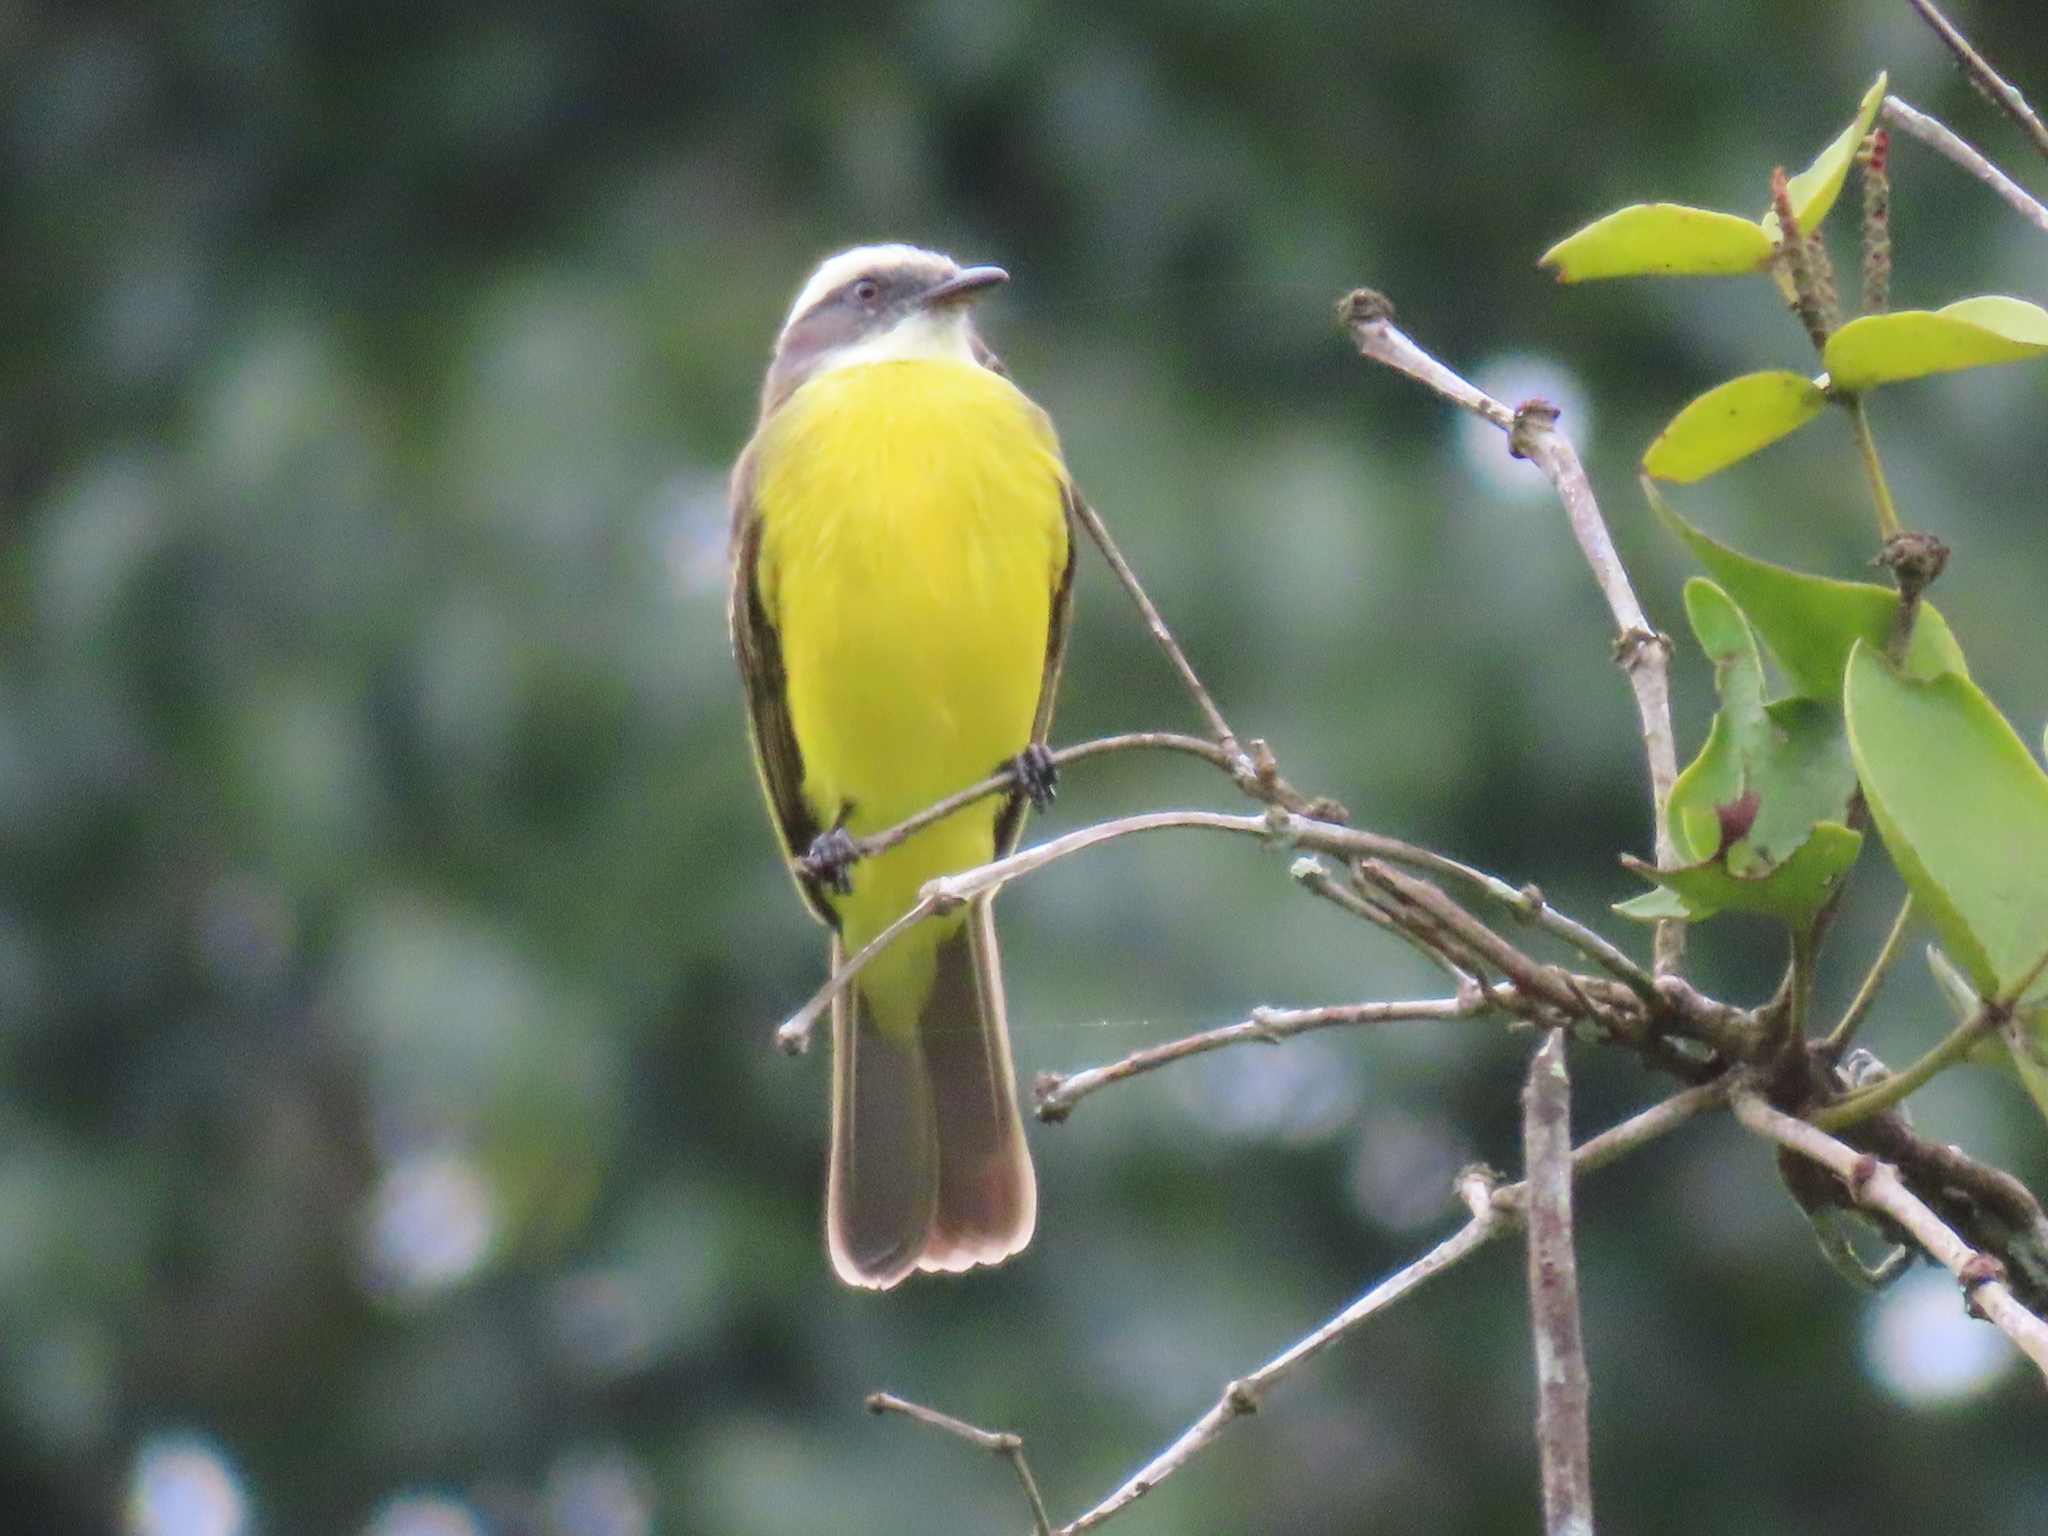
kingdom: Animalia
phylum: Chordata
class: Aves
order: Passeriformes
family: Tyrannidae
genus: Myiozetetes
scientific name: Myiozetetes similis
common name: Social flycatcher
